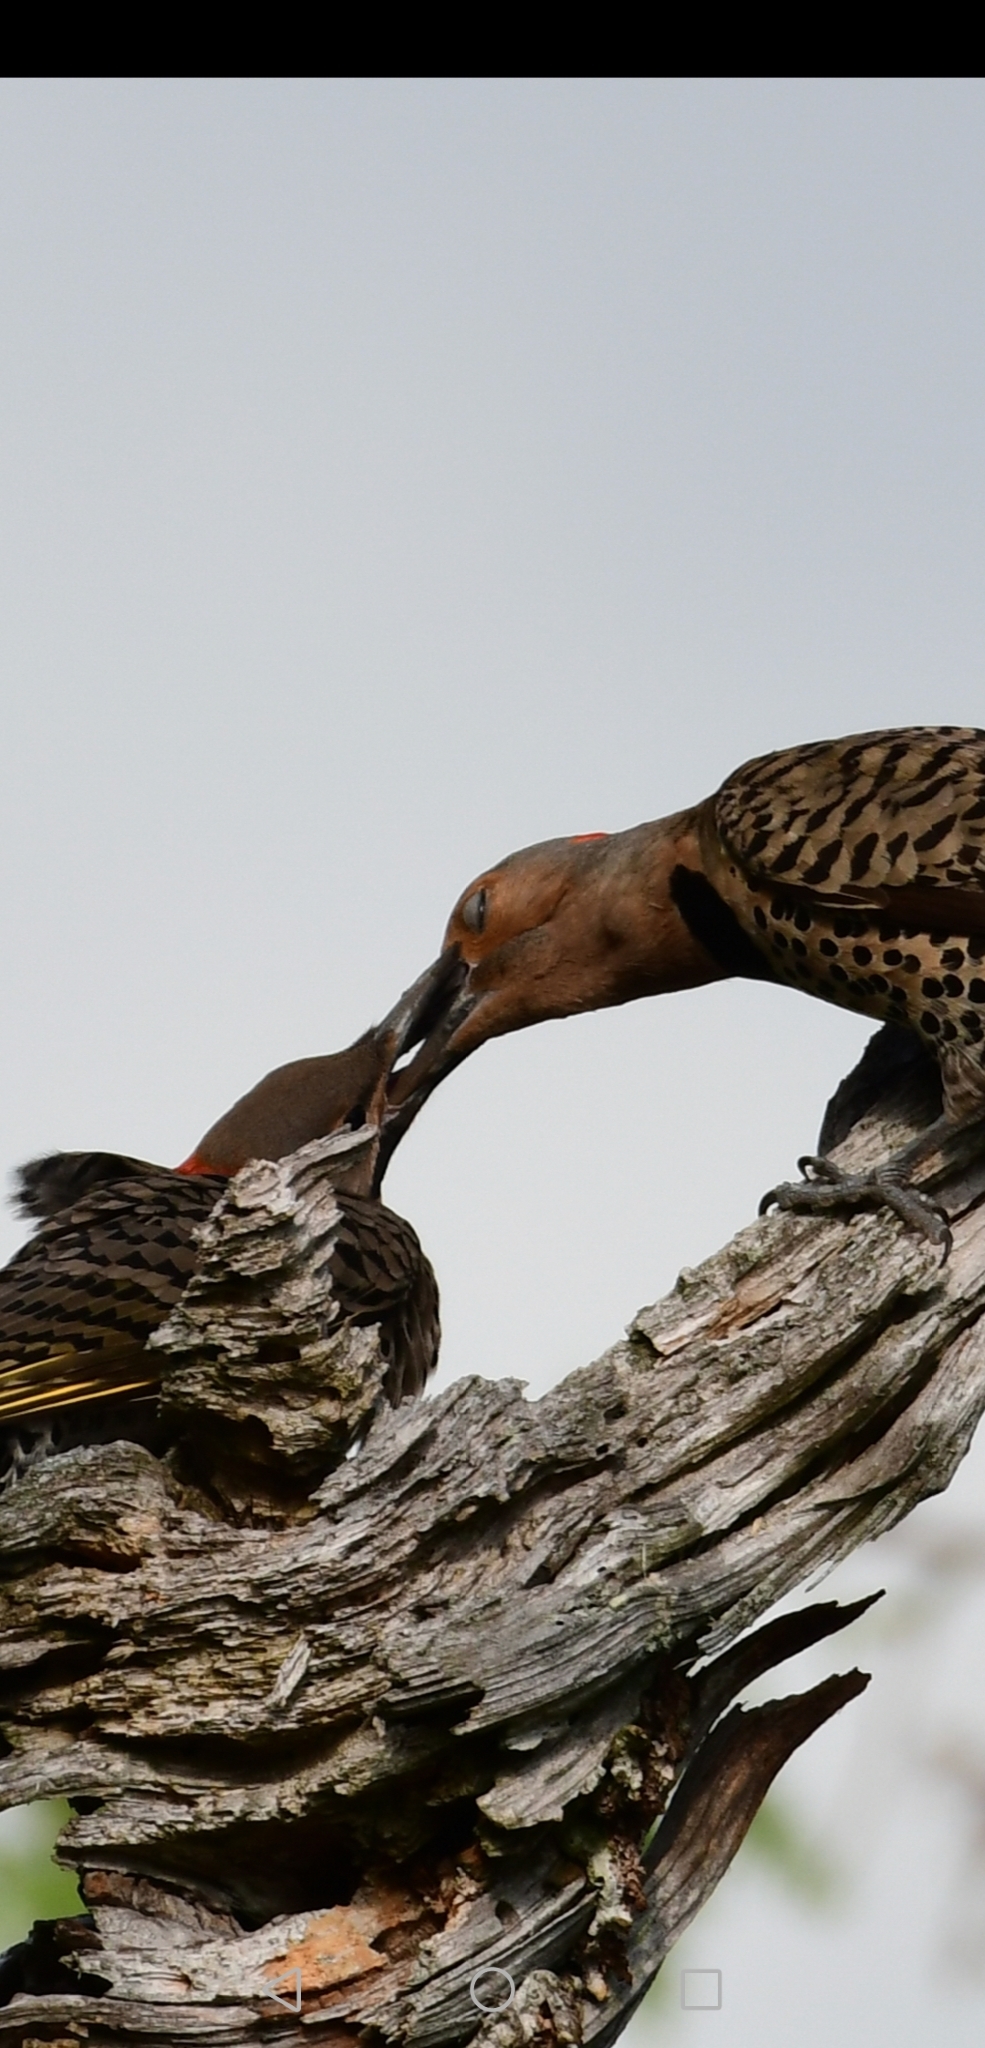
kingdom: Animalia
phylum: Chordata
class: Aves
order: Piciformes
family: Picidae
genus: Colaptes
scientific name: Colaptes auratus
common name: Northern flicker
